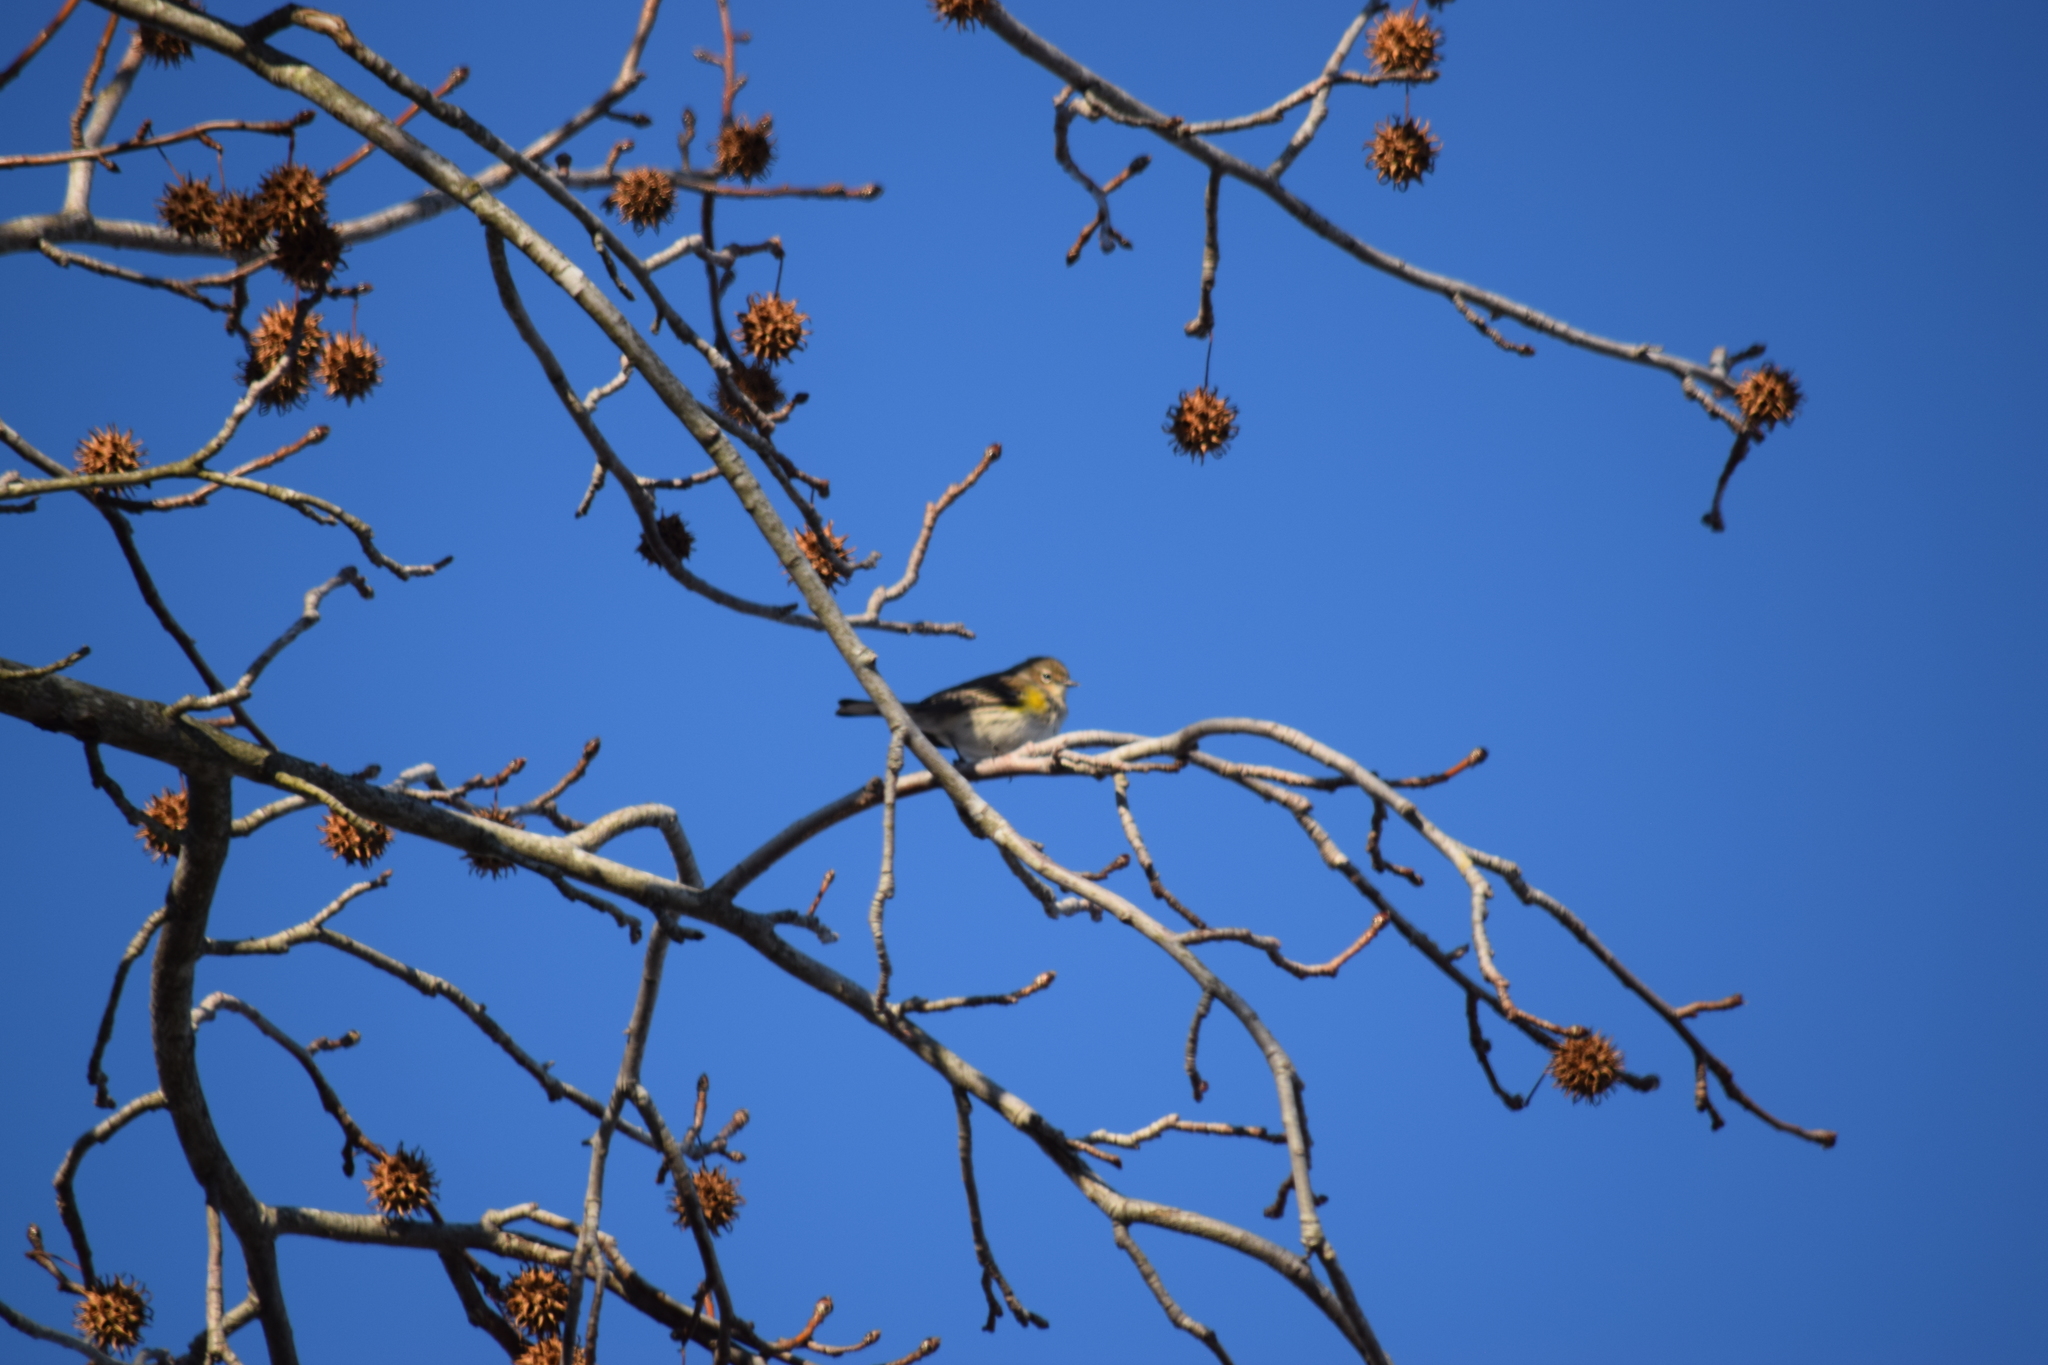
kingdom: Animalia
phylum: Chordata
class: Aves
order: Passeriformes
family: Parulidae
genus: Setophaga
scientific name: Setophaga coronata
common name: Myrtle warbler
